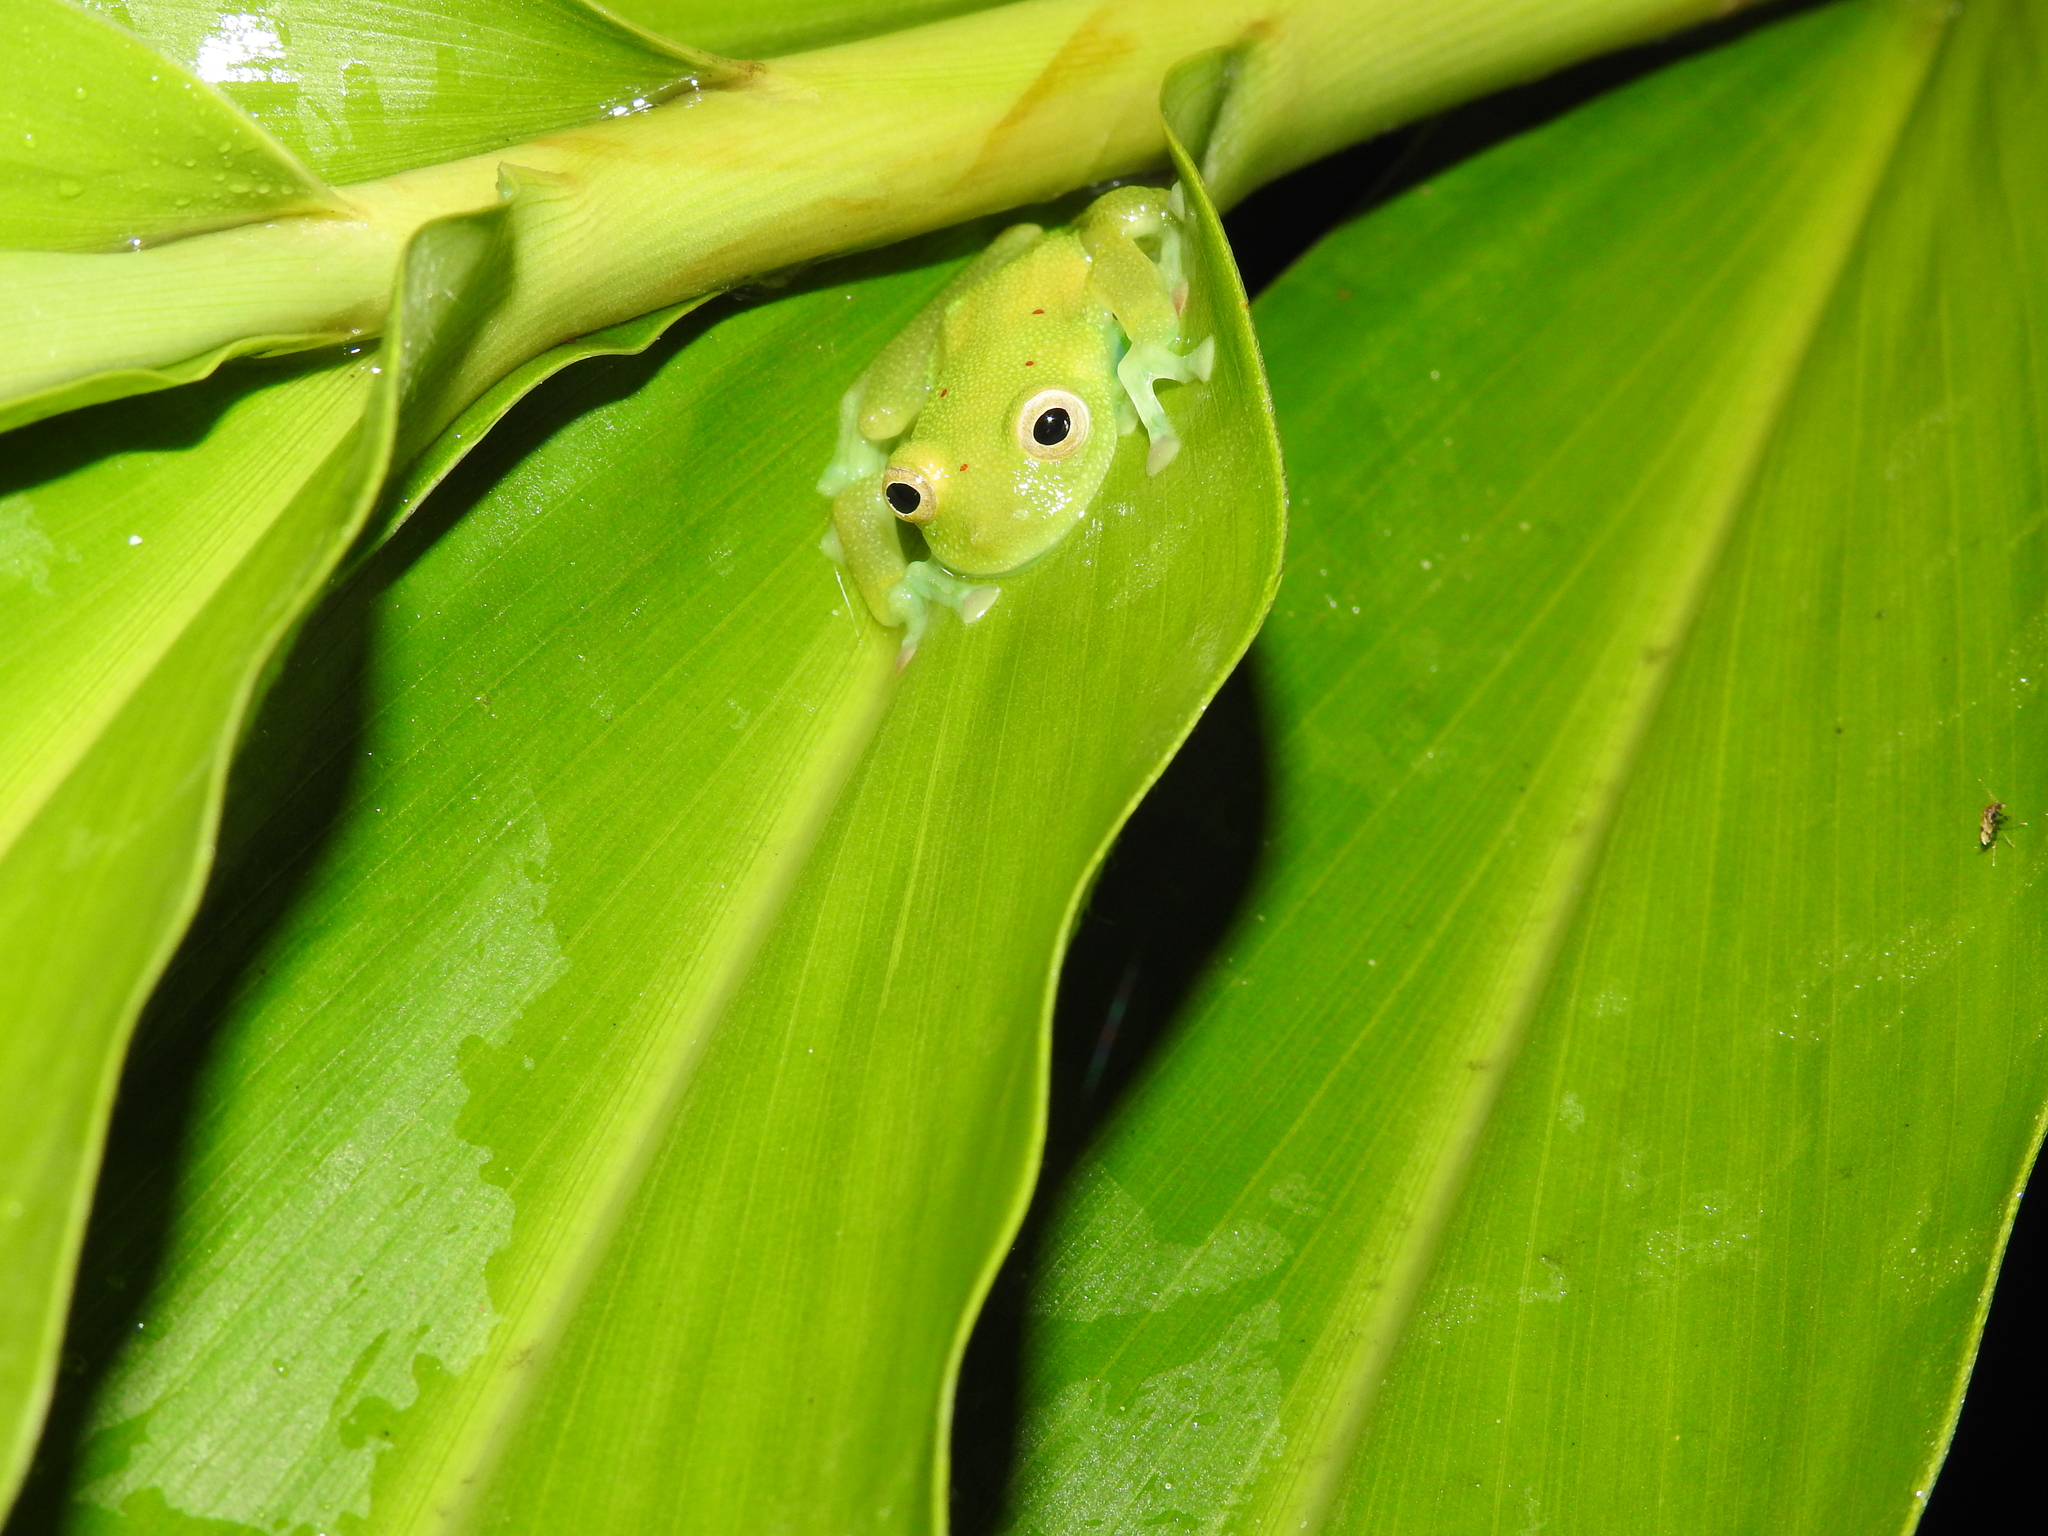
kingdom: Animalia
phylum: Chordata
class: Amphibia
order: Anura
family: Centrolenidae
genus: Nymphargus
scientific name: Nymphargus grandisonae
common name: Rana de cristal sarampiona
